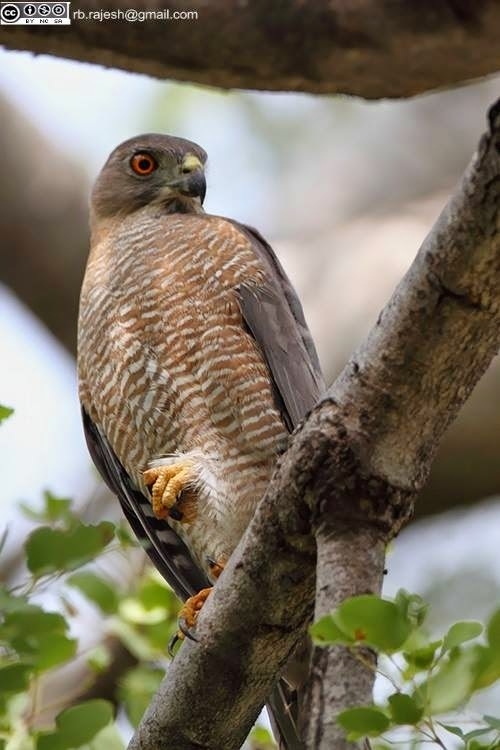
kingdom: Animalia
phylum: Chordata
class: Aves
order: Accipitriformes
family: Accipitridae
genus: Accipiter
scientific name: Accipiter badius
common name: Shikra
